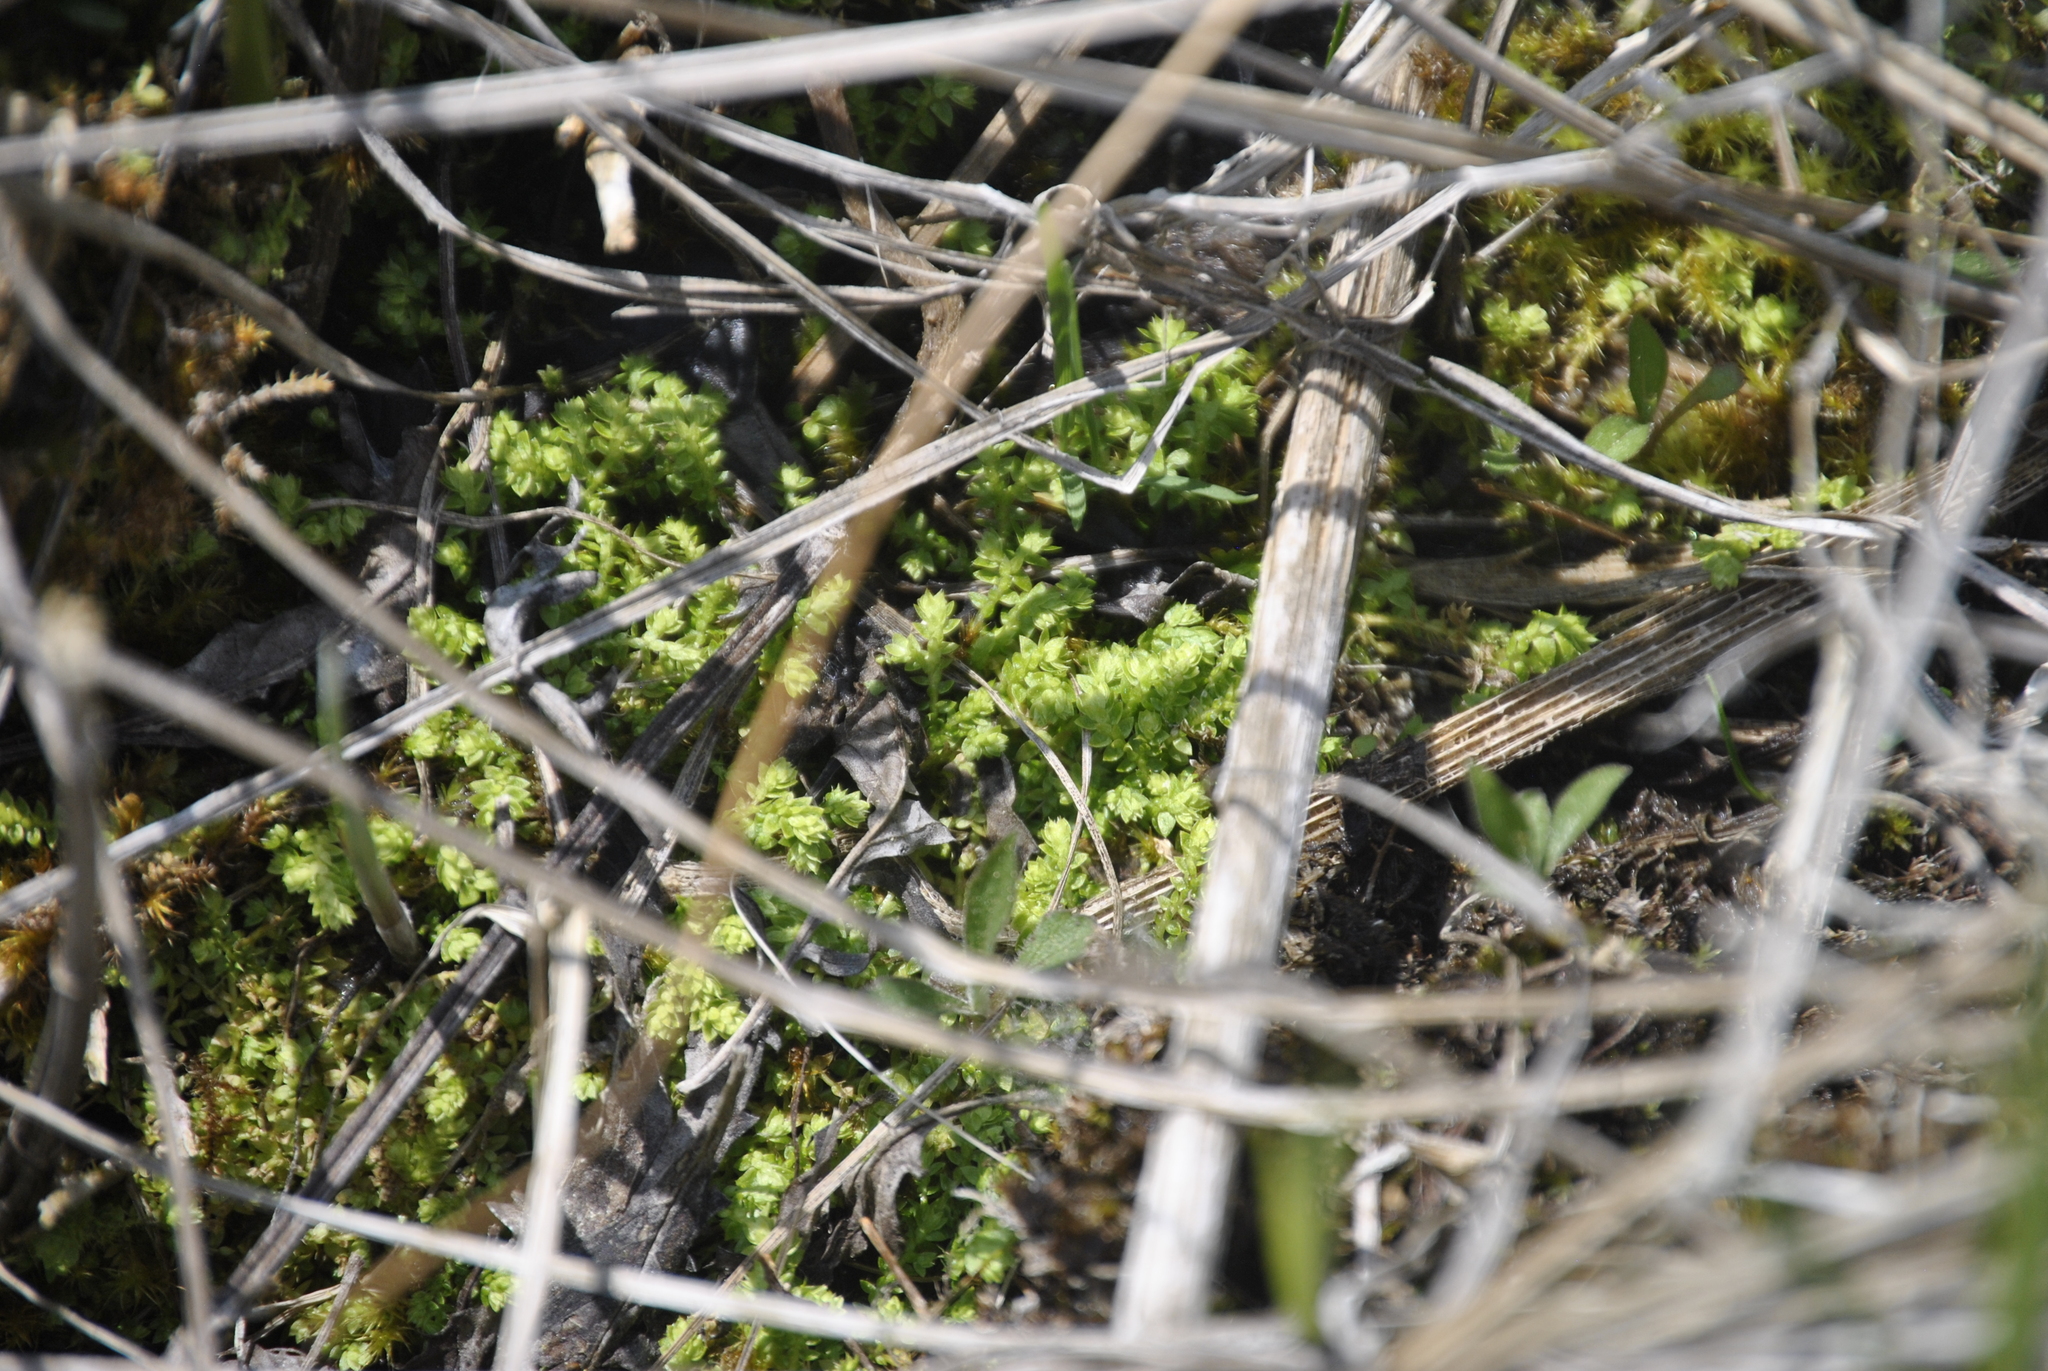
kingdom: Plantae
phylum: Tracheophyta
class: Lycopodiopsida
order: Selaginellales
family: Selaginellaceae
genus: Selaginella
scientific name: Selaginella eclipes
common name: Buck's meadow spikemoss
